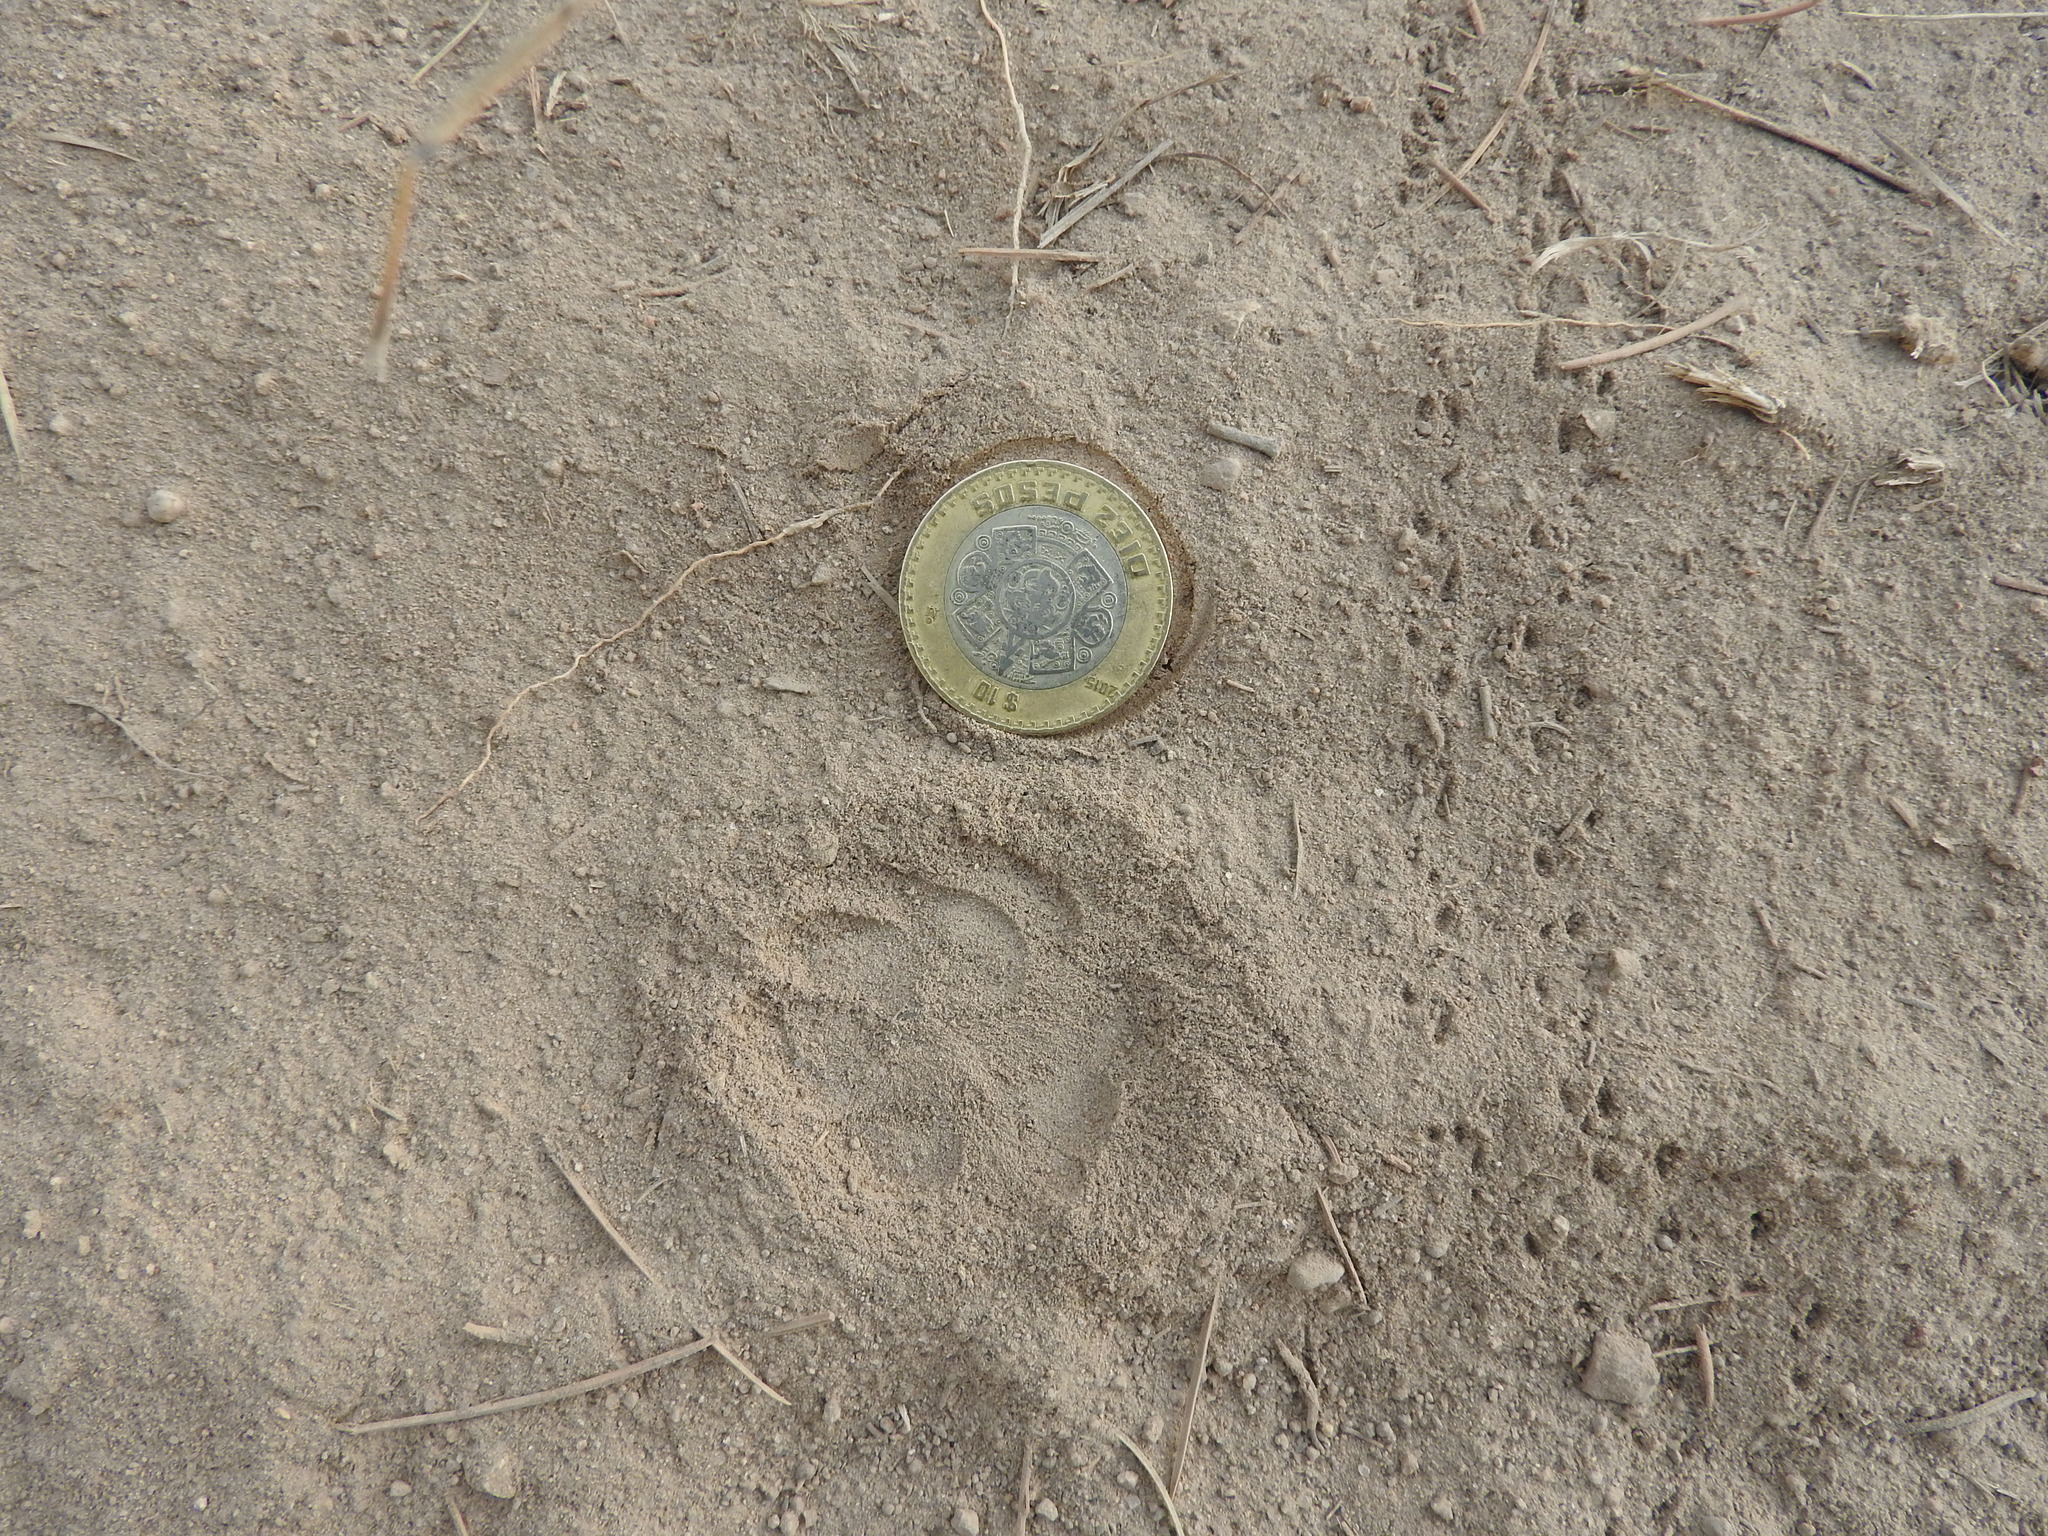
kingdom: Animalia
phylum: Chordata
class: Mammalia
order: Carnivora
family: Canidae
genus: Urocyon
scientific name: Urocyon cinereoargenteus
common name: Gray fox
